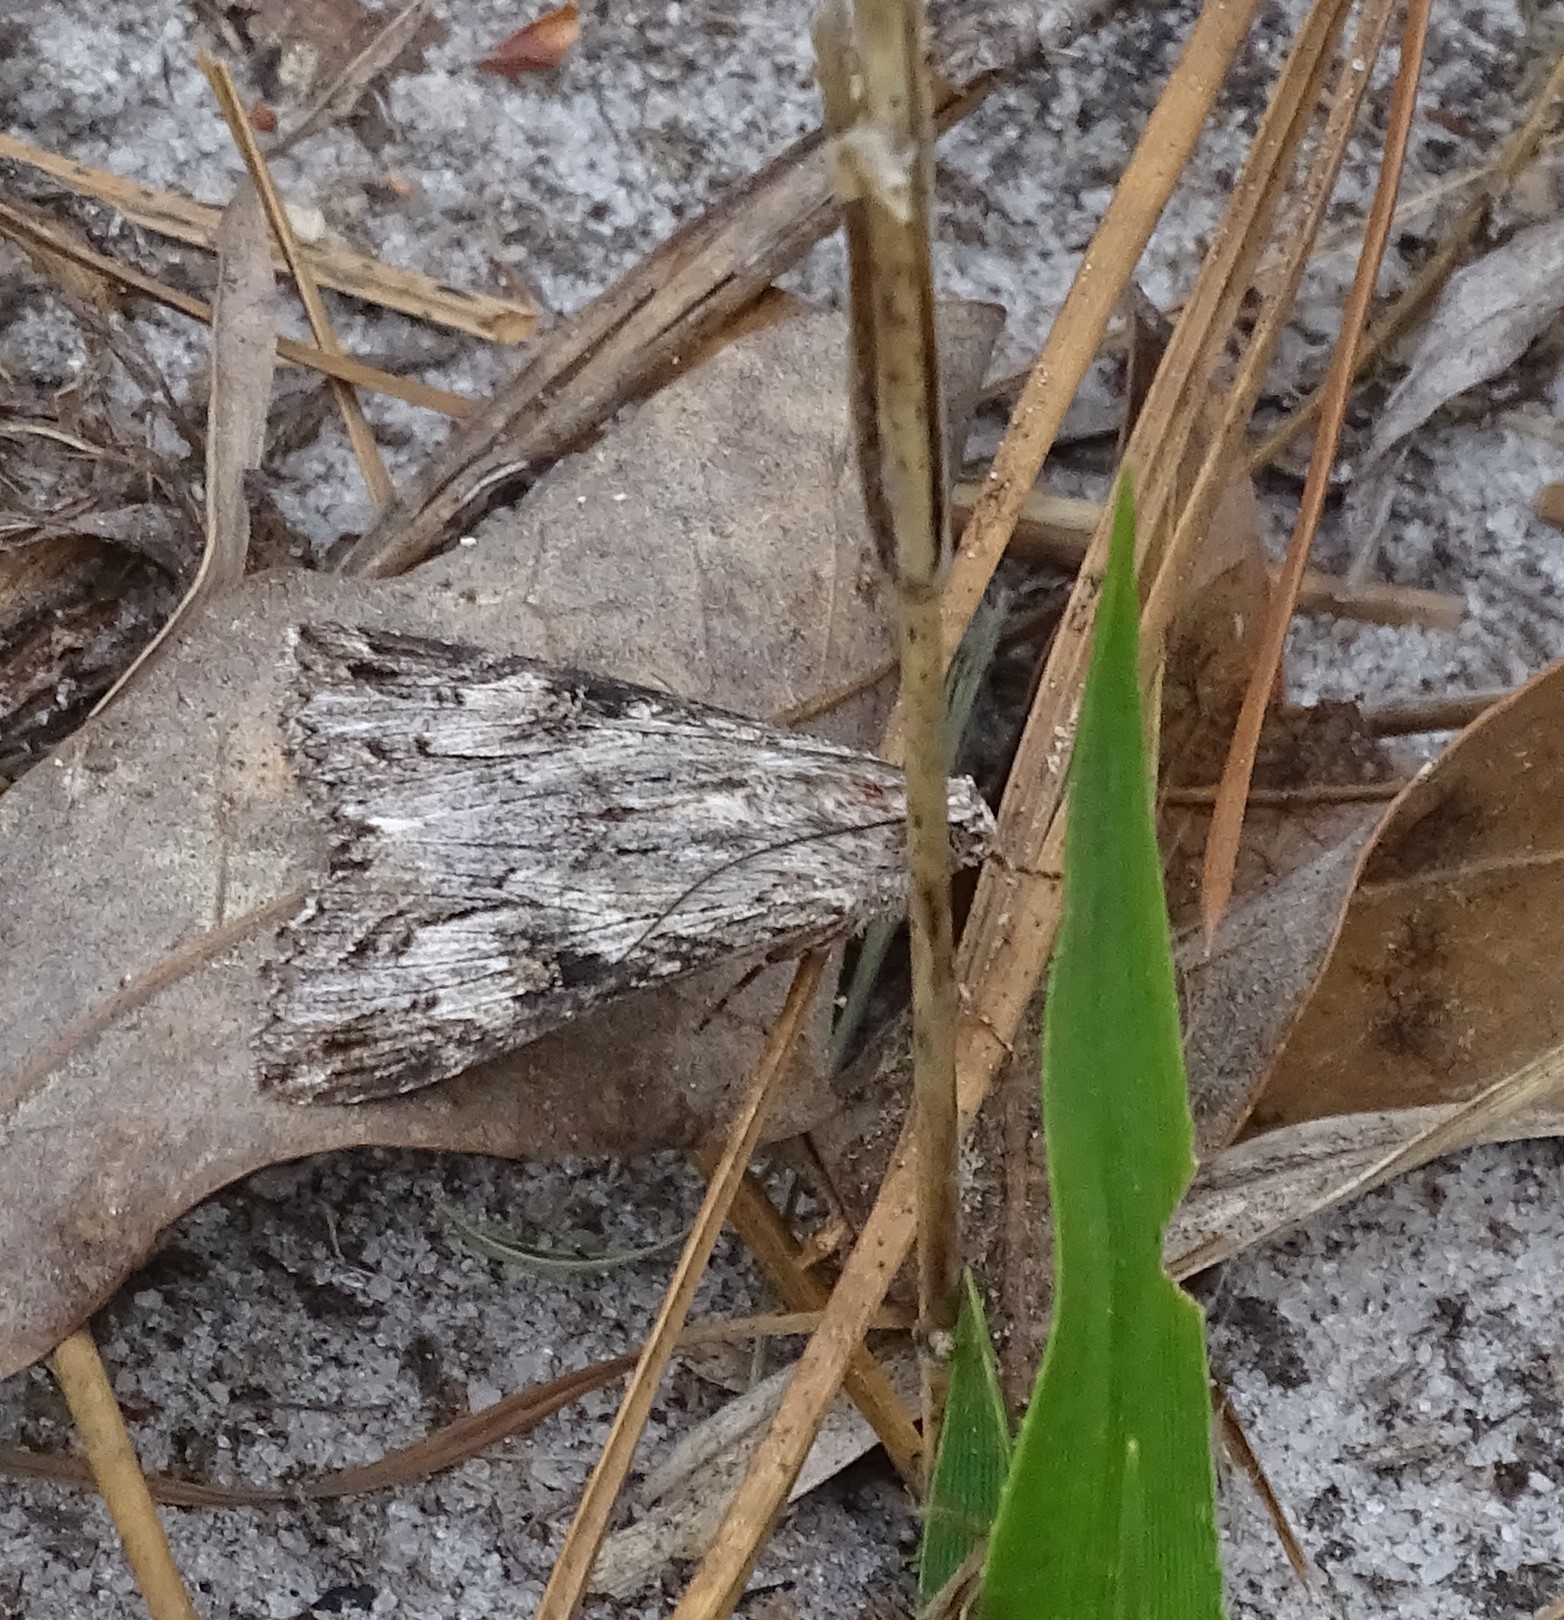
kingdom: Animalia
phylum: Arthropoda
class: Insecta
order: Lepidoptera
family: Erebidae
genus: Melipotis
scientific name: Melipotis jucunda
